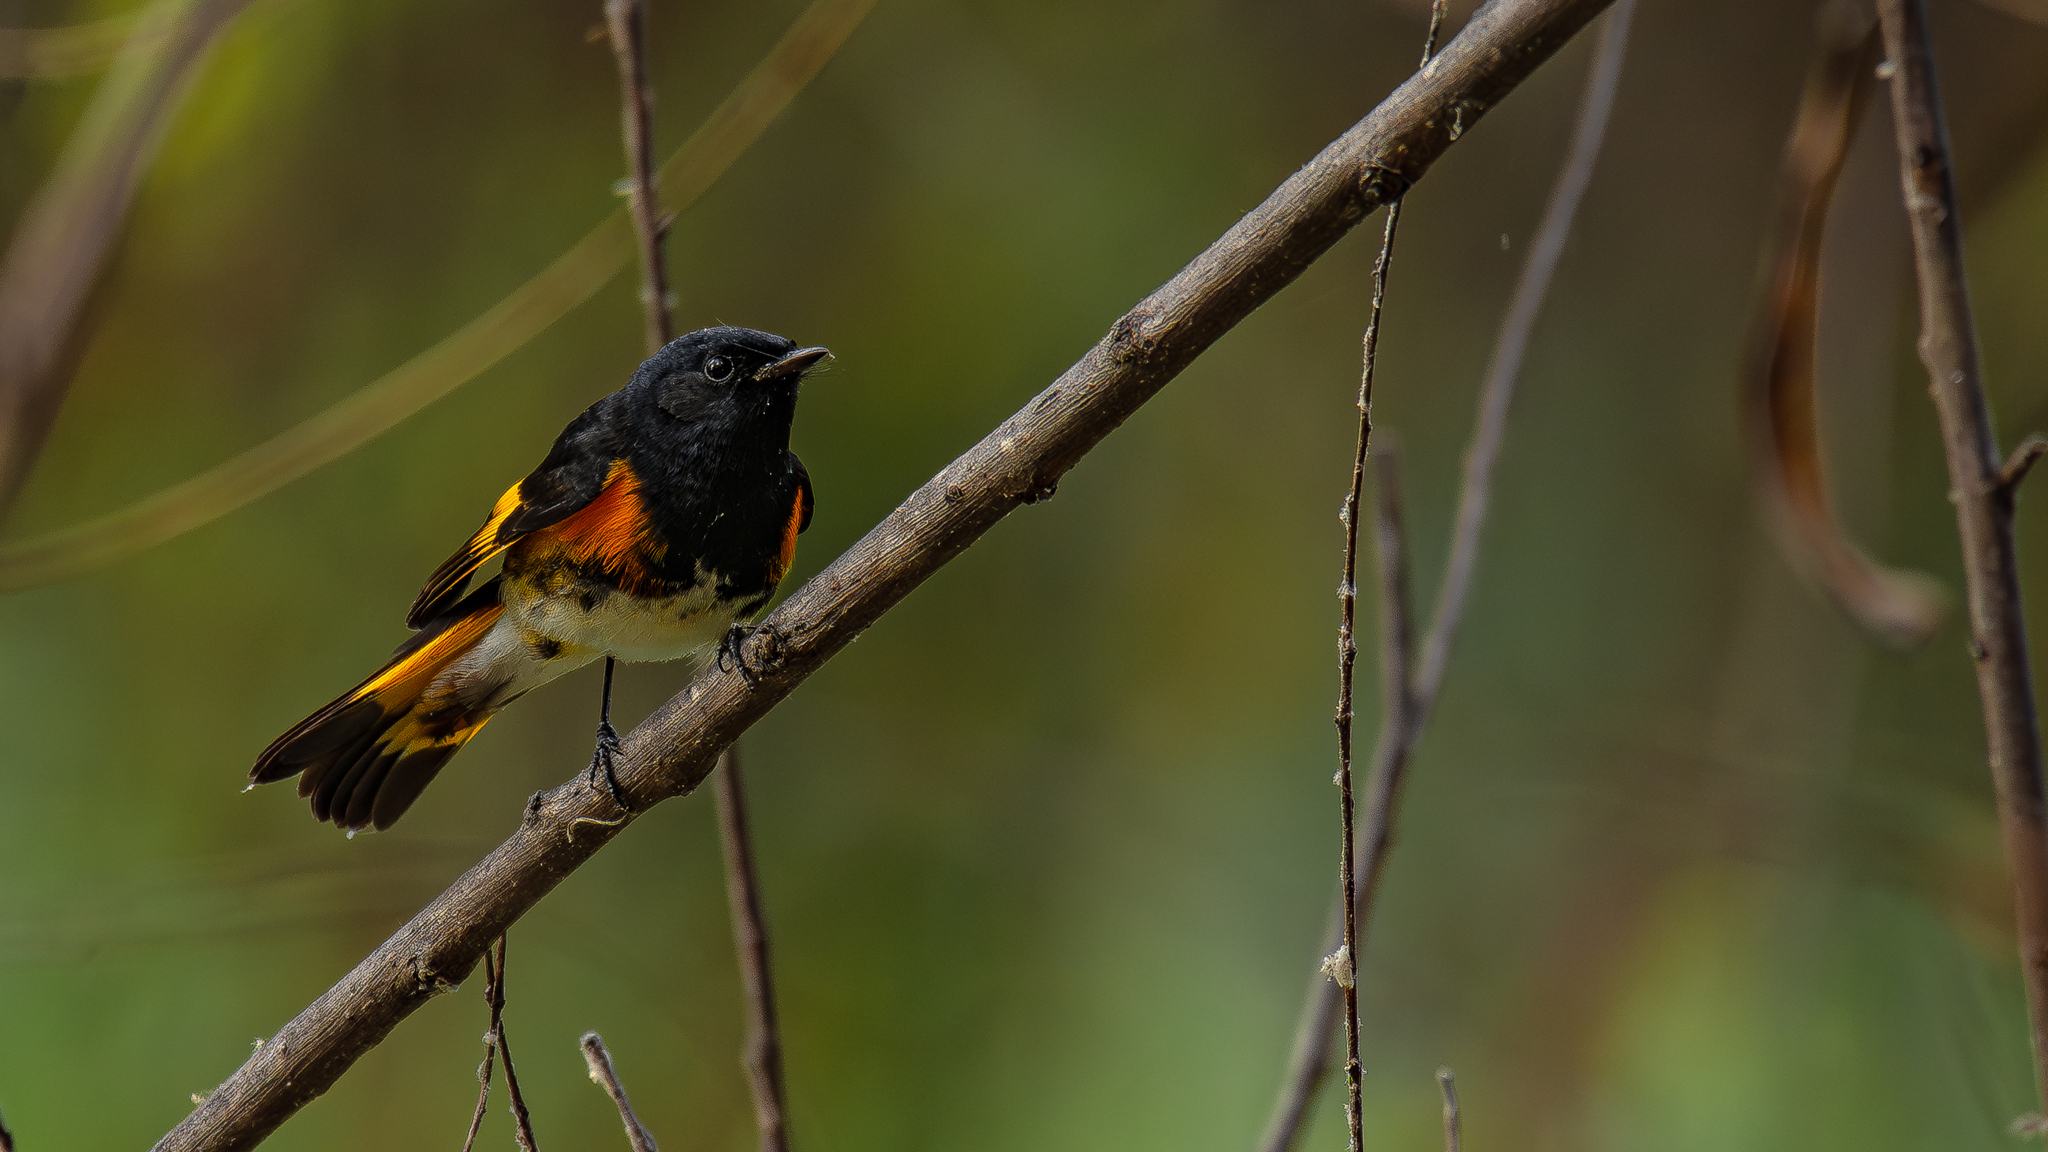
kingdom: Animalia
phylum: Chordata
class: Aves
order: Passeriformes
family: Parulidae
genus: Setophaga
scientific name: Setophaga ruticilla
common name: American redstart
